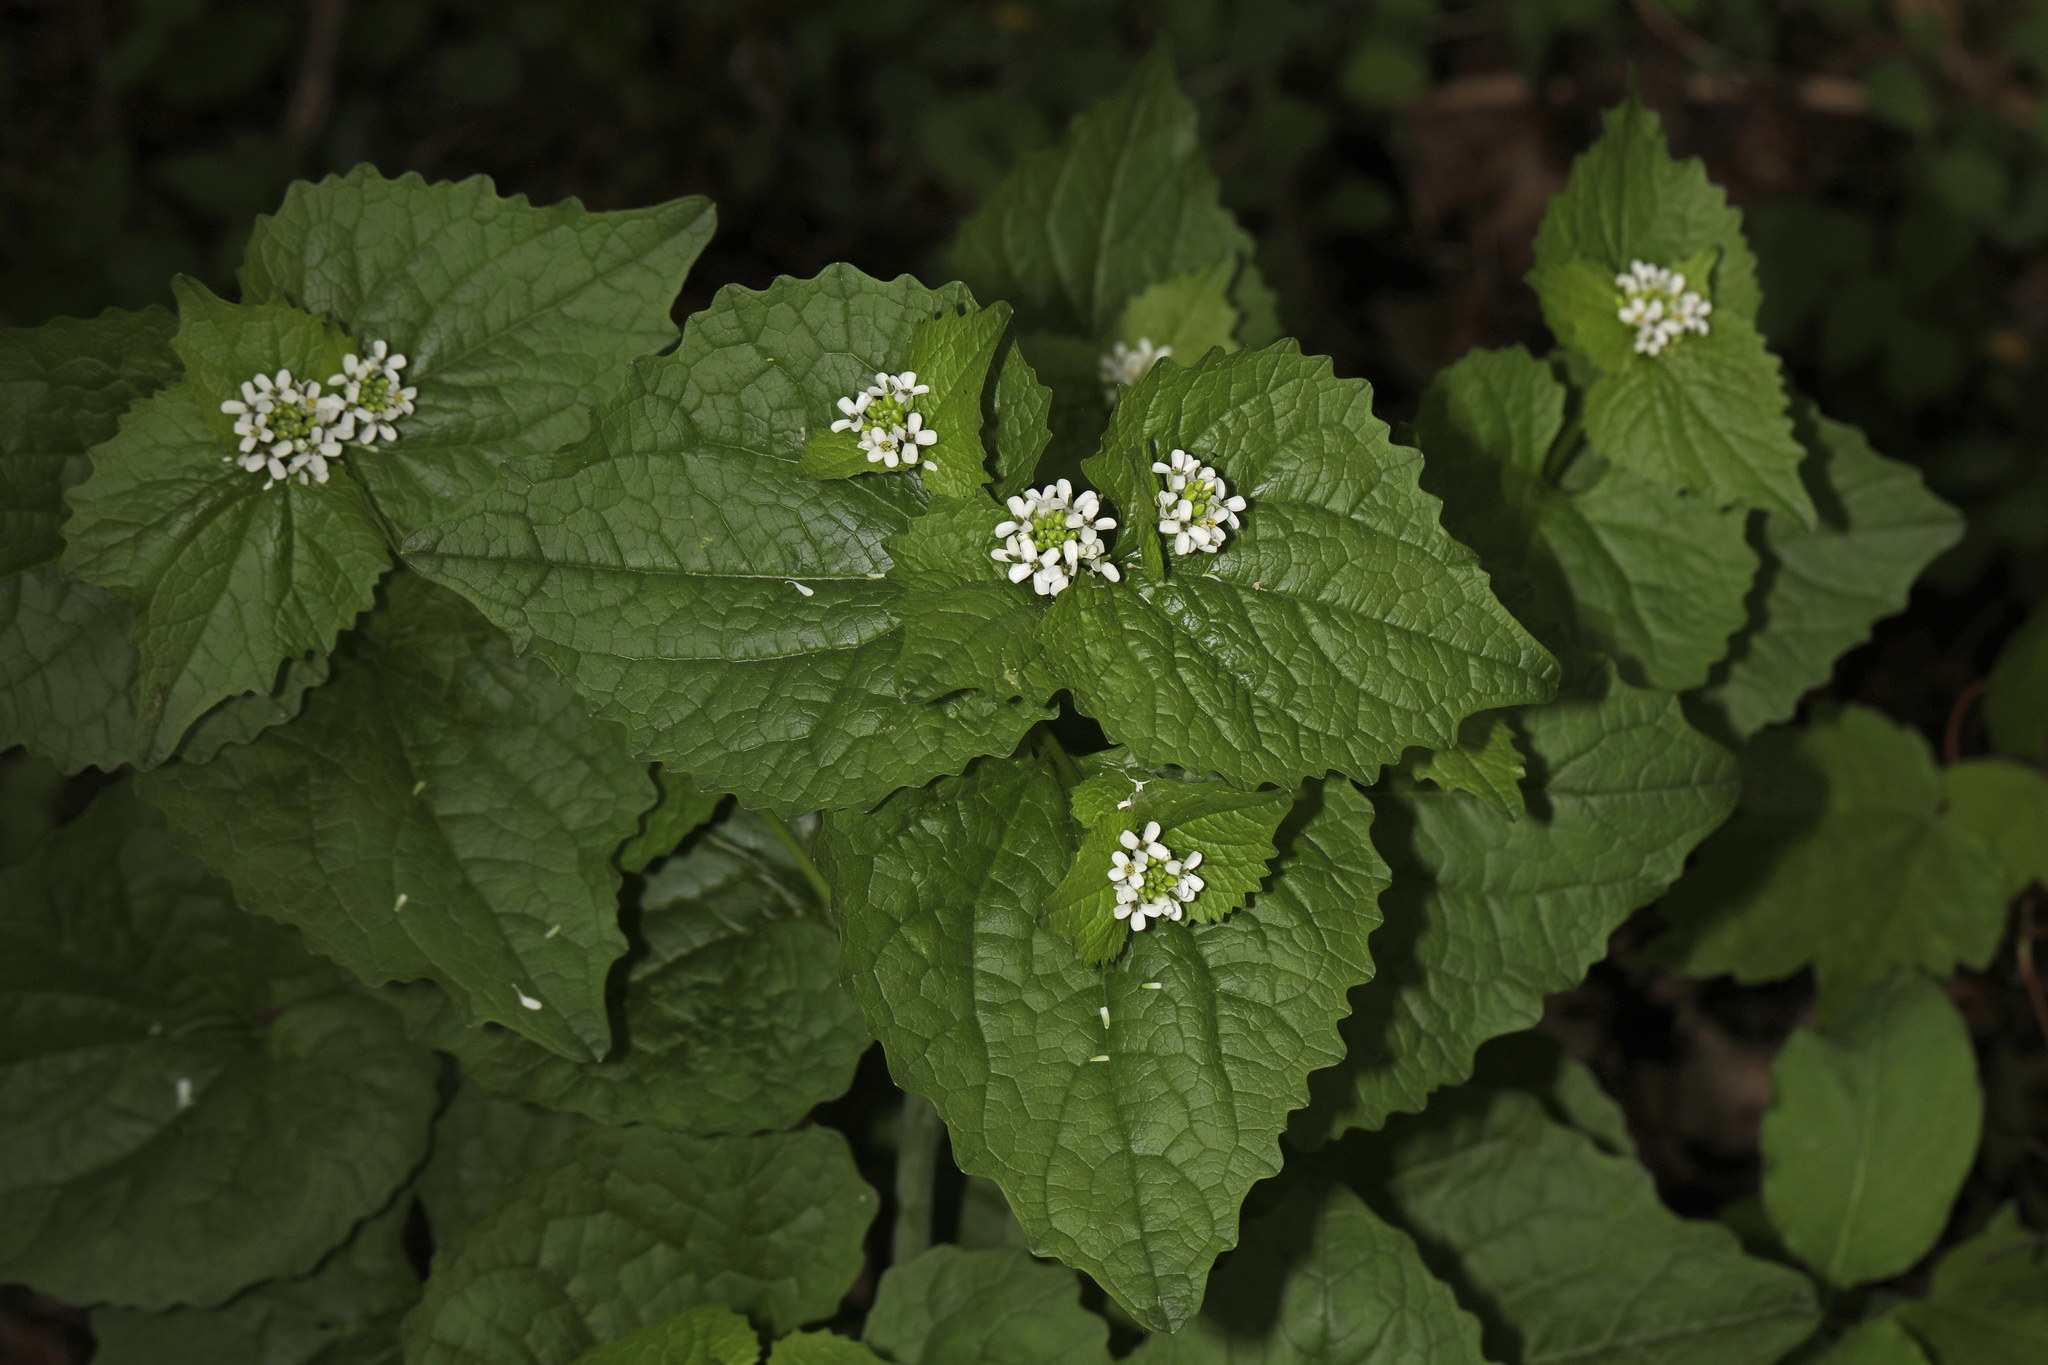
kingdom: Plantae
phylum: Tracheophyta
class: Magnoliopsida
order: Brassicales
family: Brassicaceae
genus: Alliaria
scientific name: Alliaria petiolata
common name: Garlic mustard
